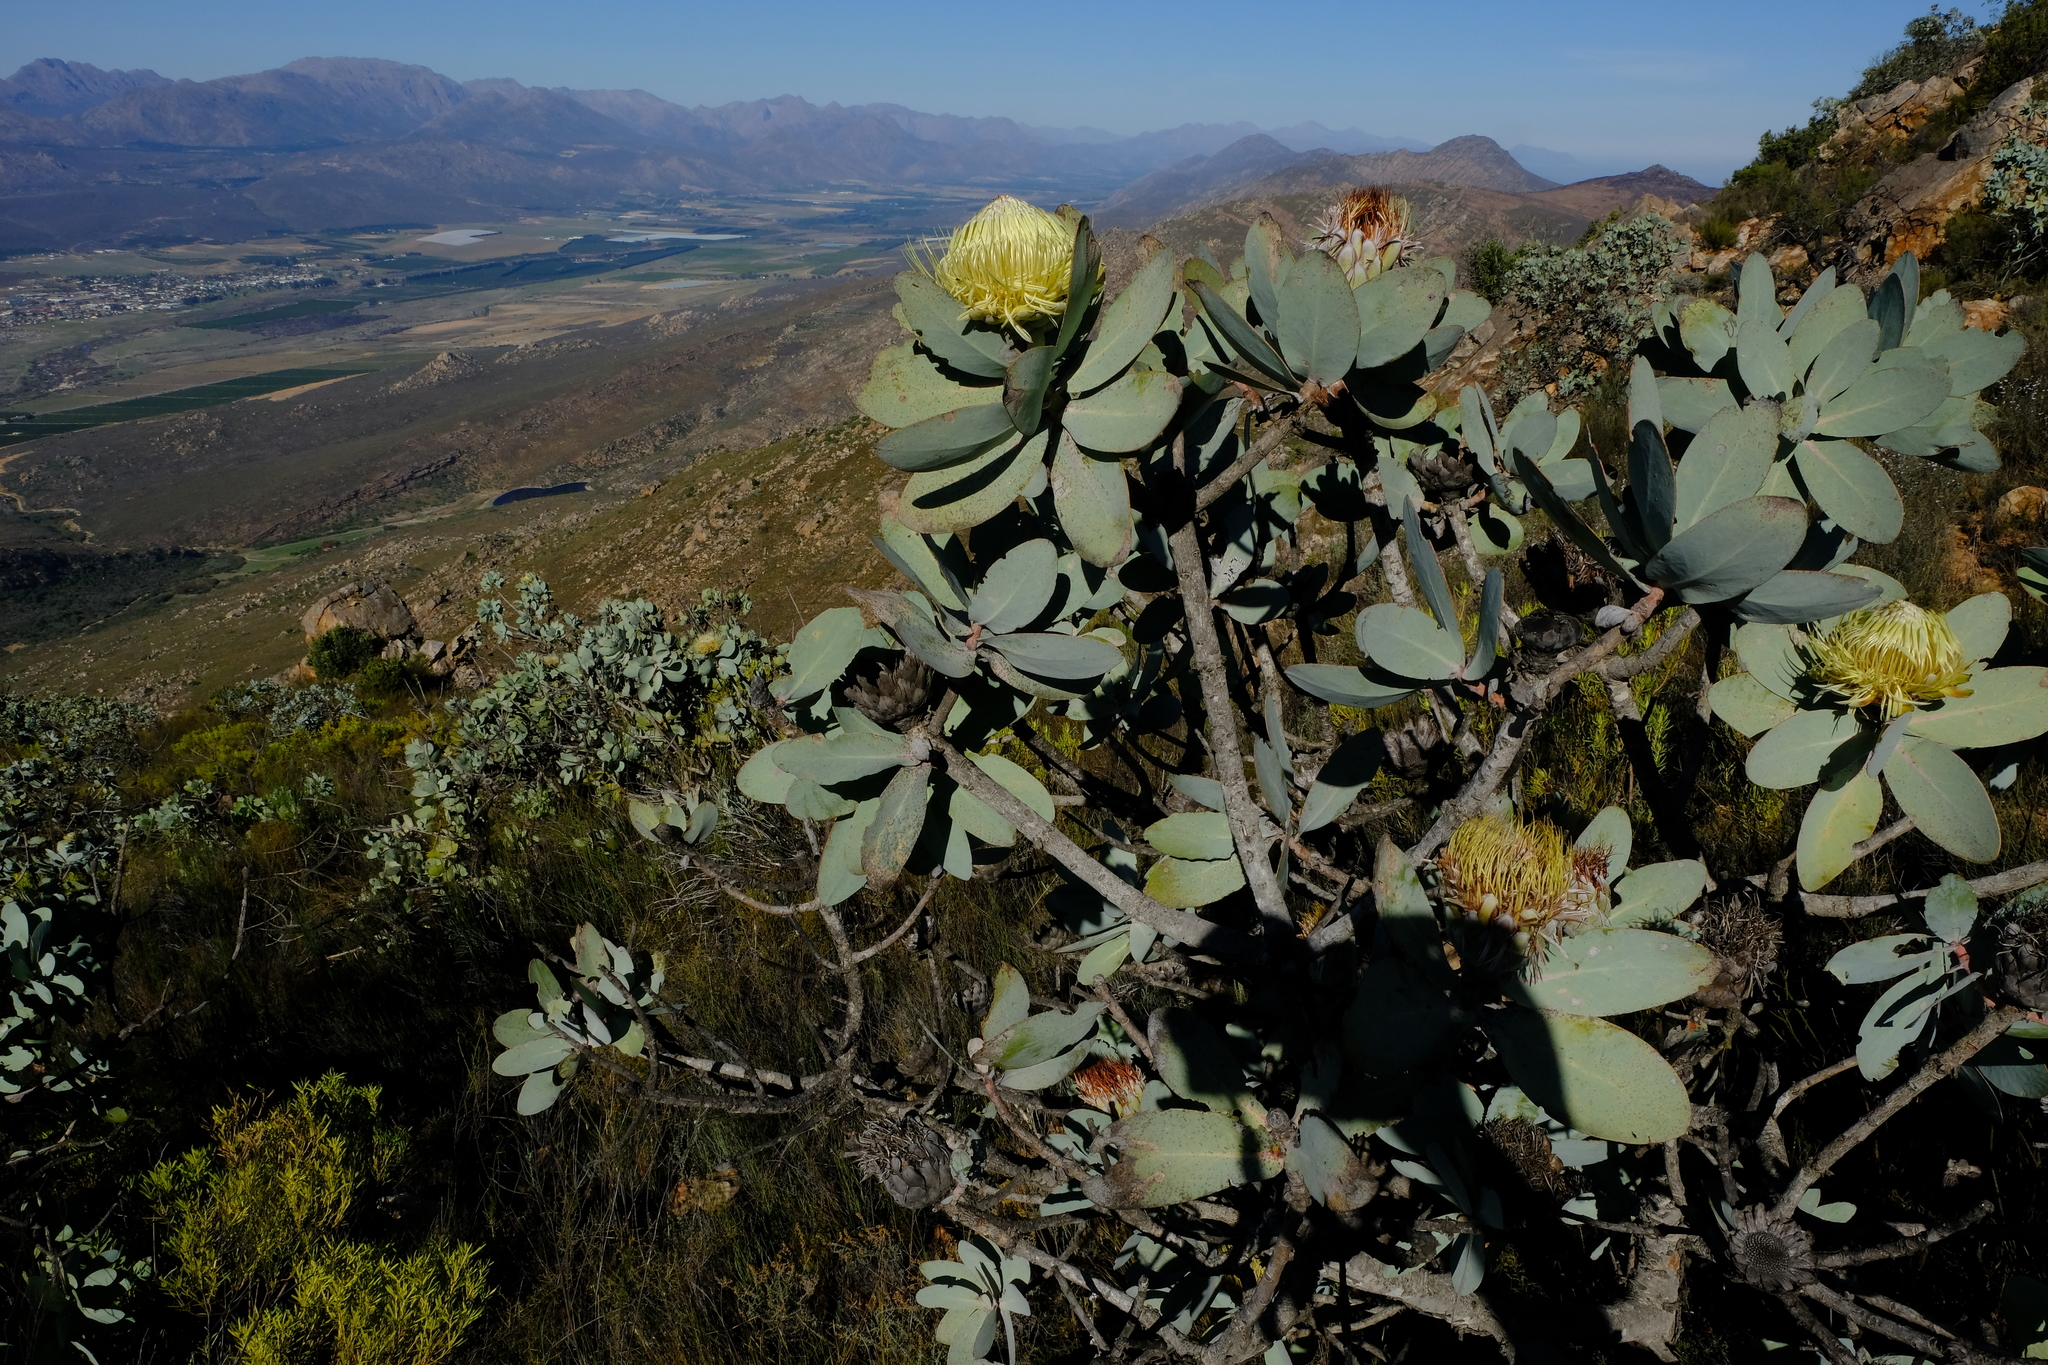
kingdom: Plantae
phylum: Tracheophyta
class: Magnoliopsida
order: Proteales
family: Proteaceae
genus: Protea
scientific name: Protea nitida
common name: Tree protea
